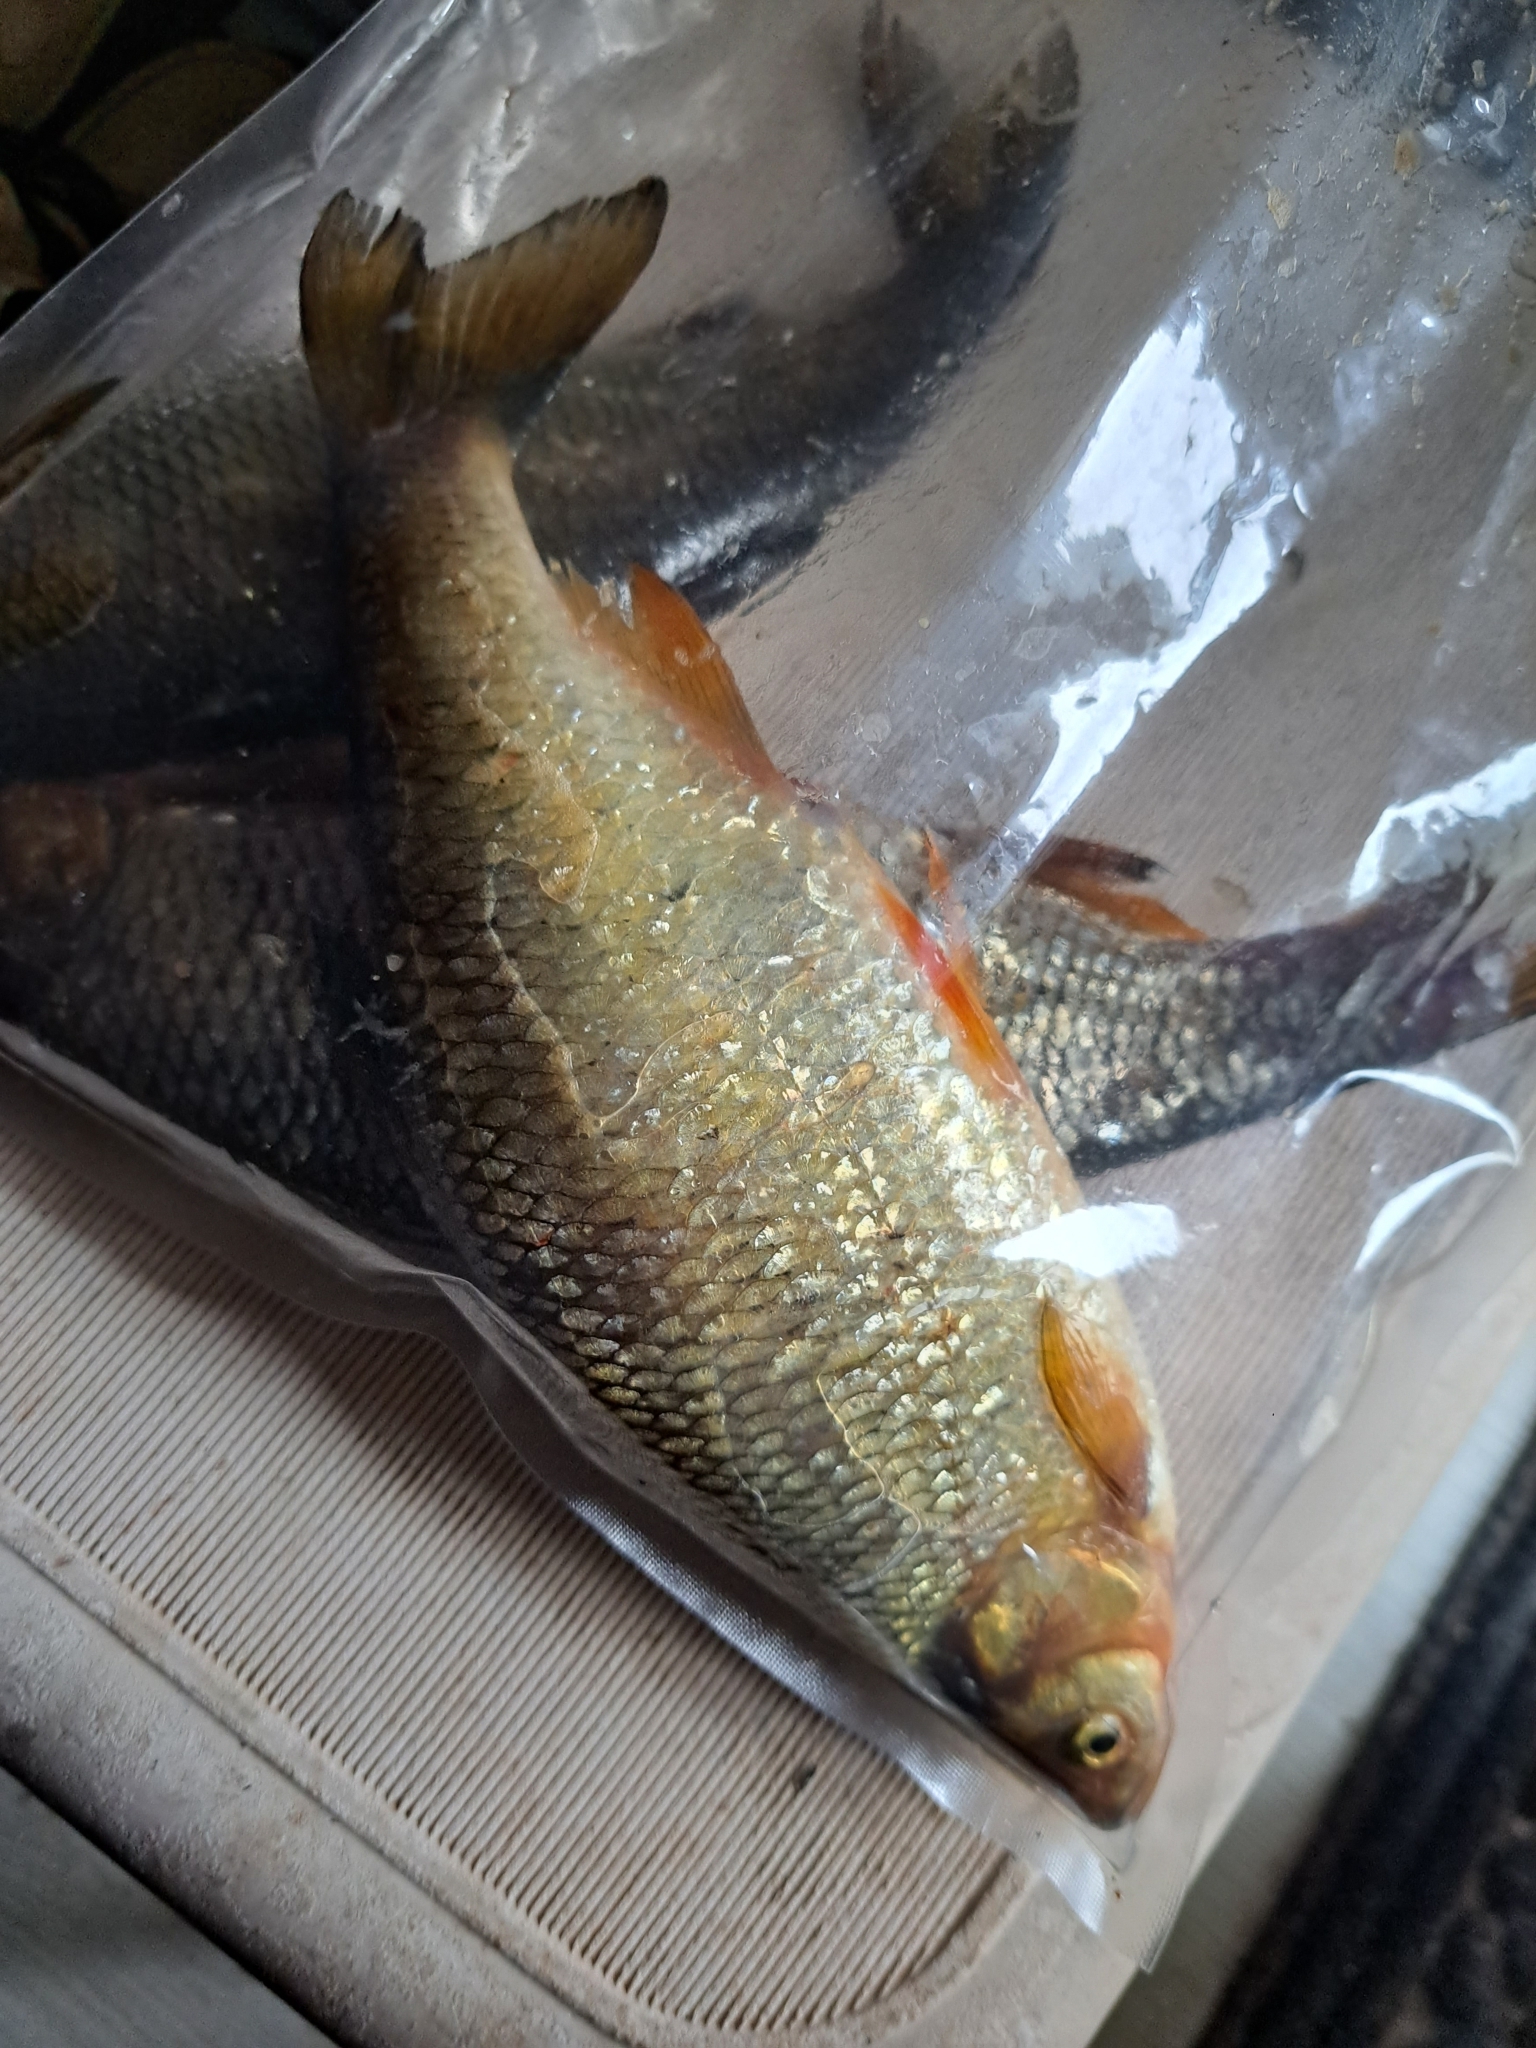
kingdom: Animalia
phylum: Chordata
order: Cypriniformes
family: Cyprinidae
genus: Notemigonus
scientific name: Notemigonus crysoleucas
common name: Golden shiner
